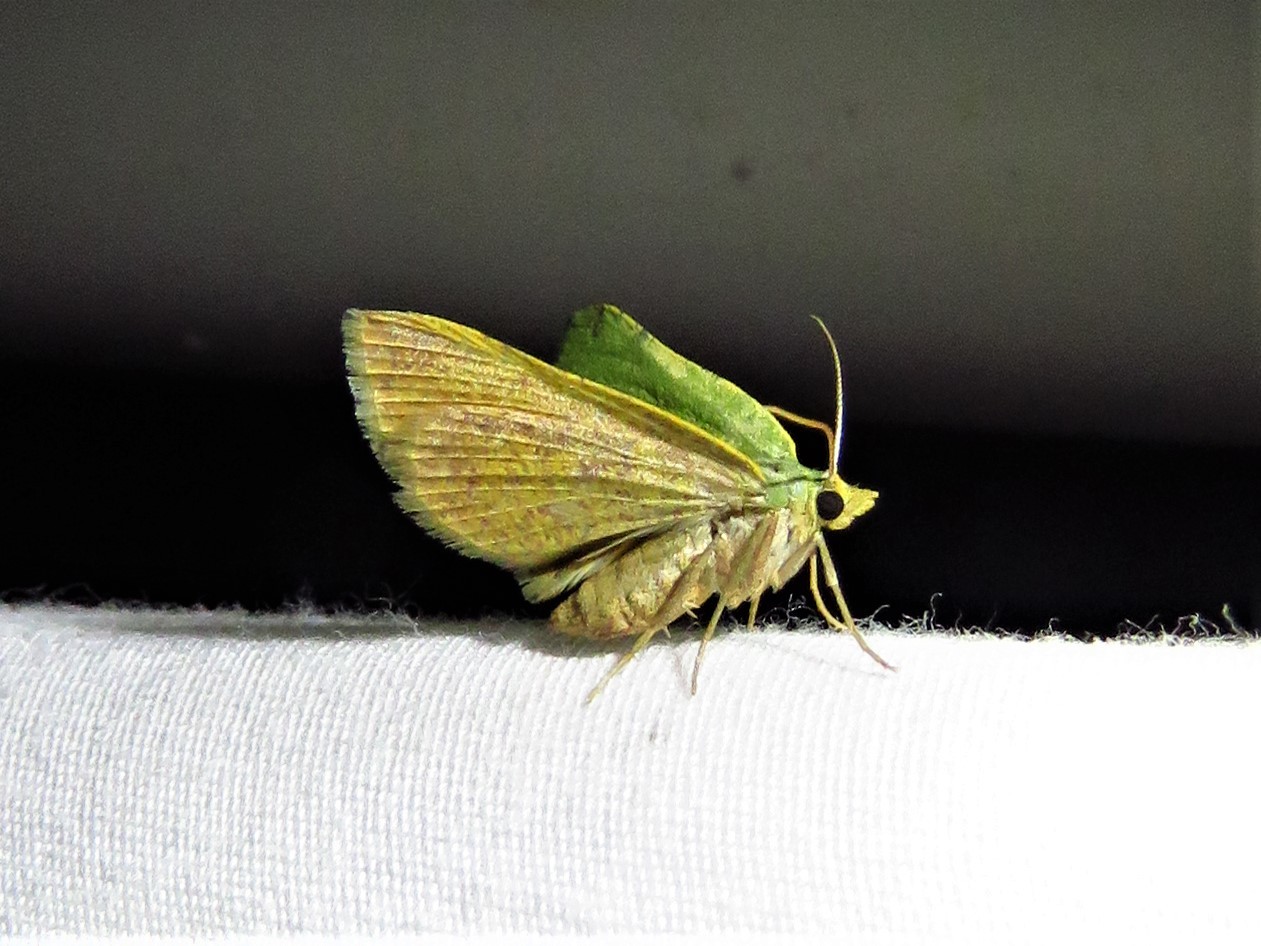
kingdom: Animalia
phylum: Arthropoda
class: Insecta
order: Lepidoptera
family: Geometridae
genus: Chloraspilates
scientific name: Chloraspilates bicoloraria
